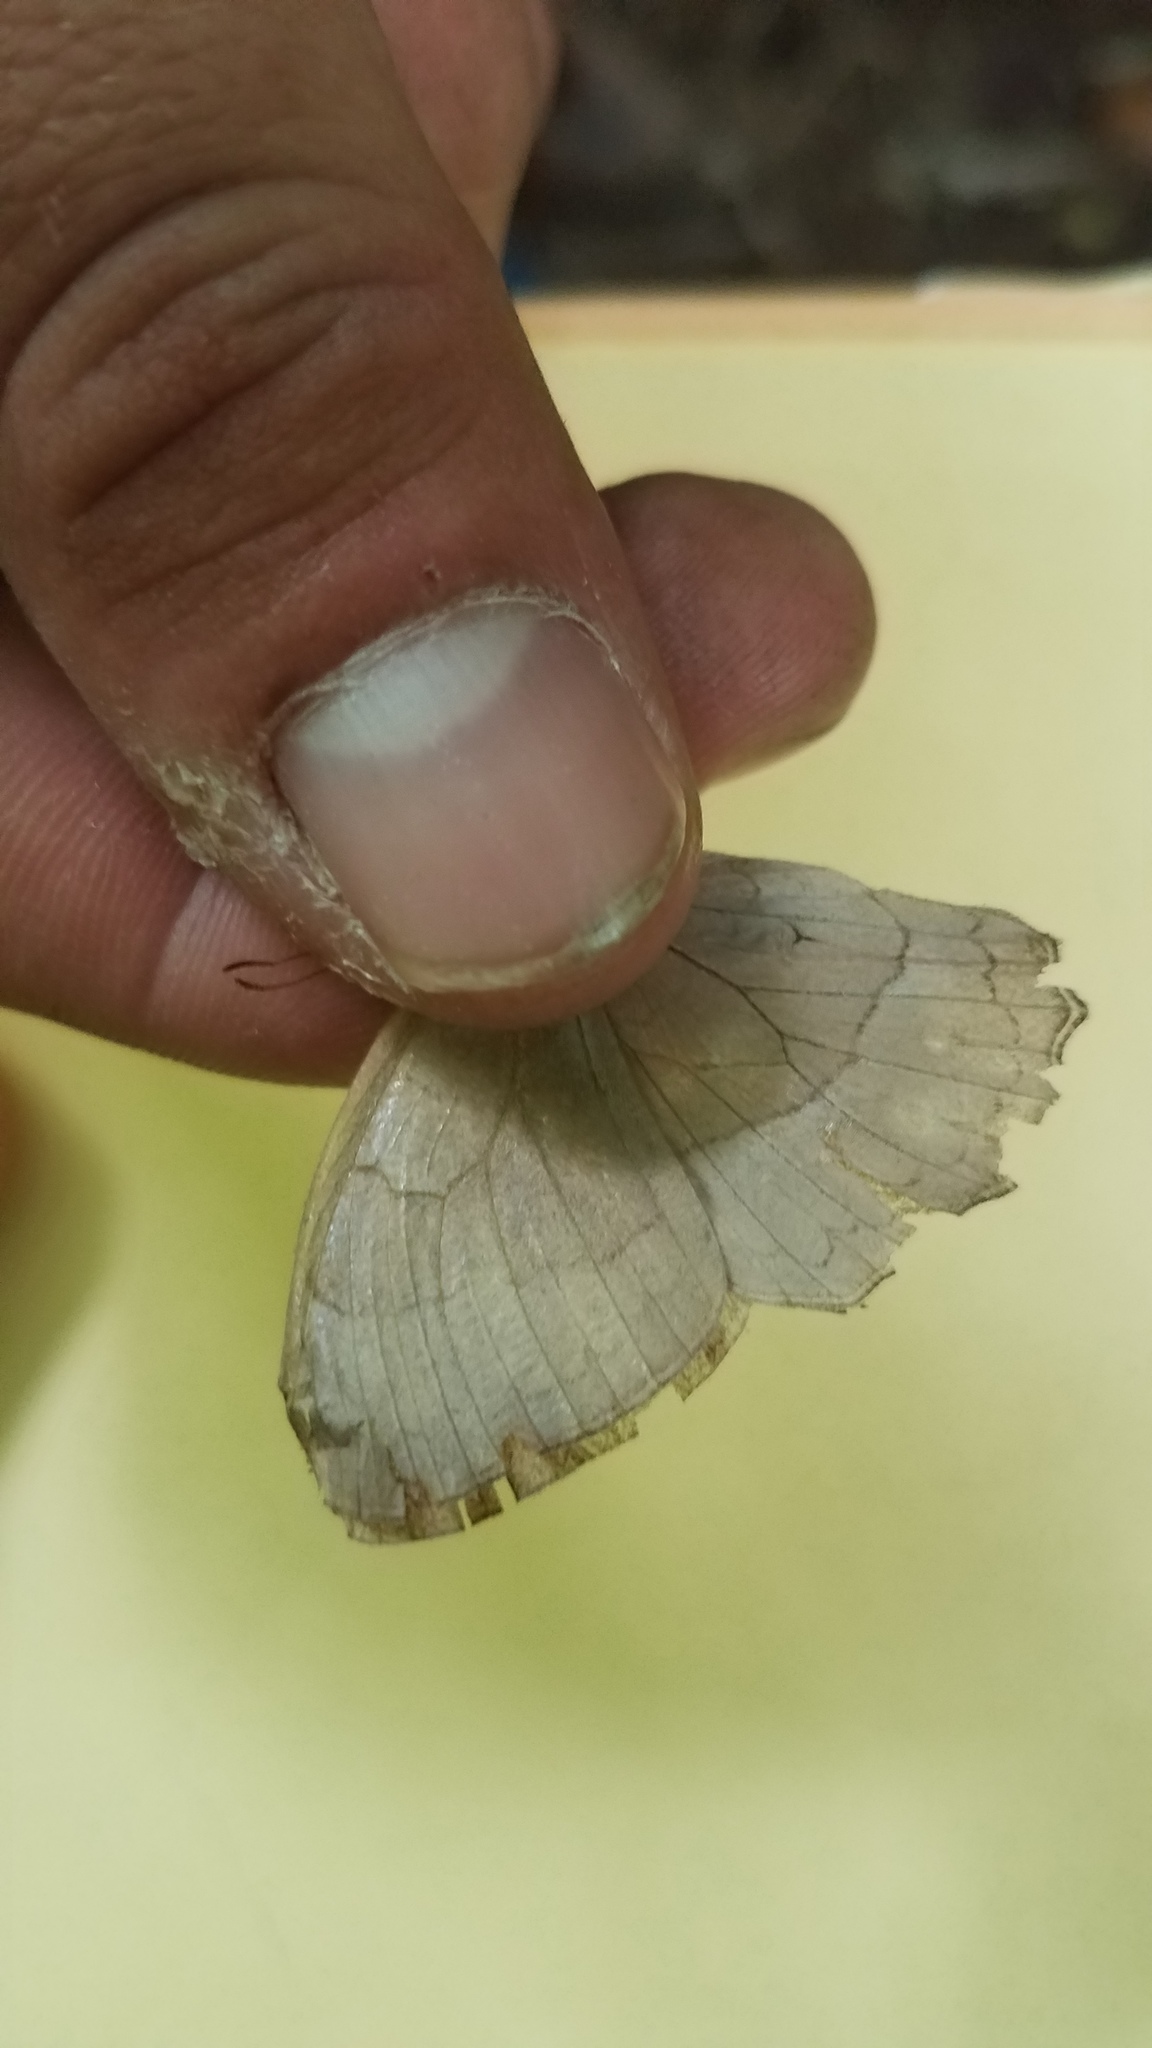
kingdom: Animalia
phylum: Arthropoda
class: Insecta
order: Lepidoptera
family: Nymphalidae
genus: Taygetina
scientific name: Taygetina kerea
